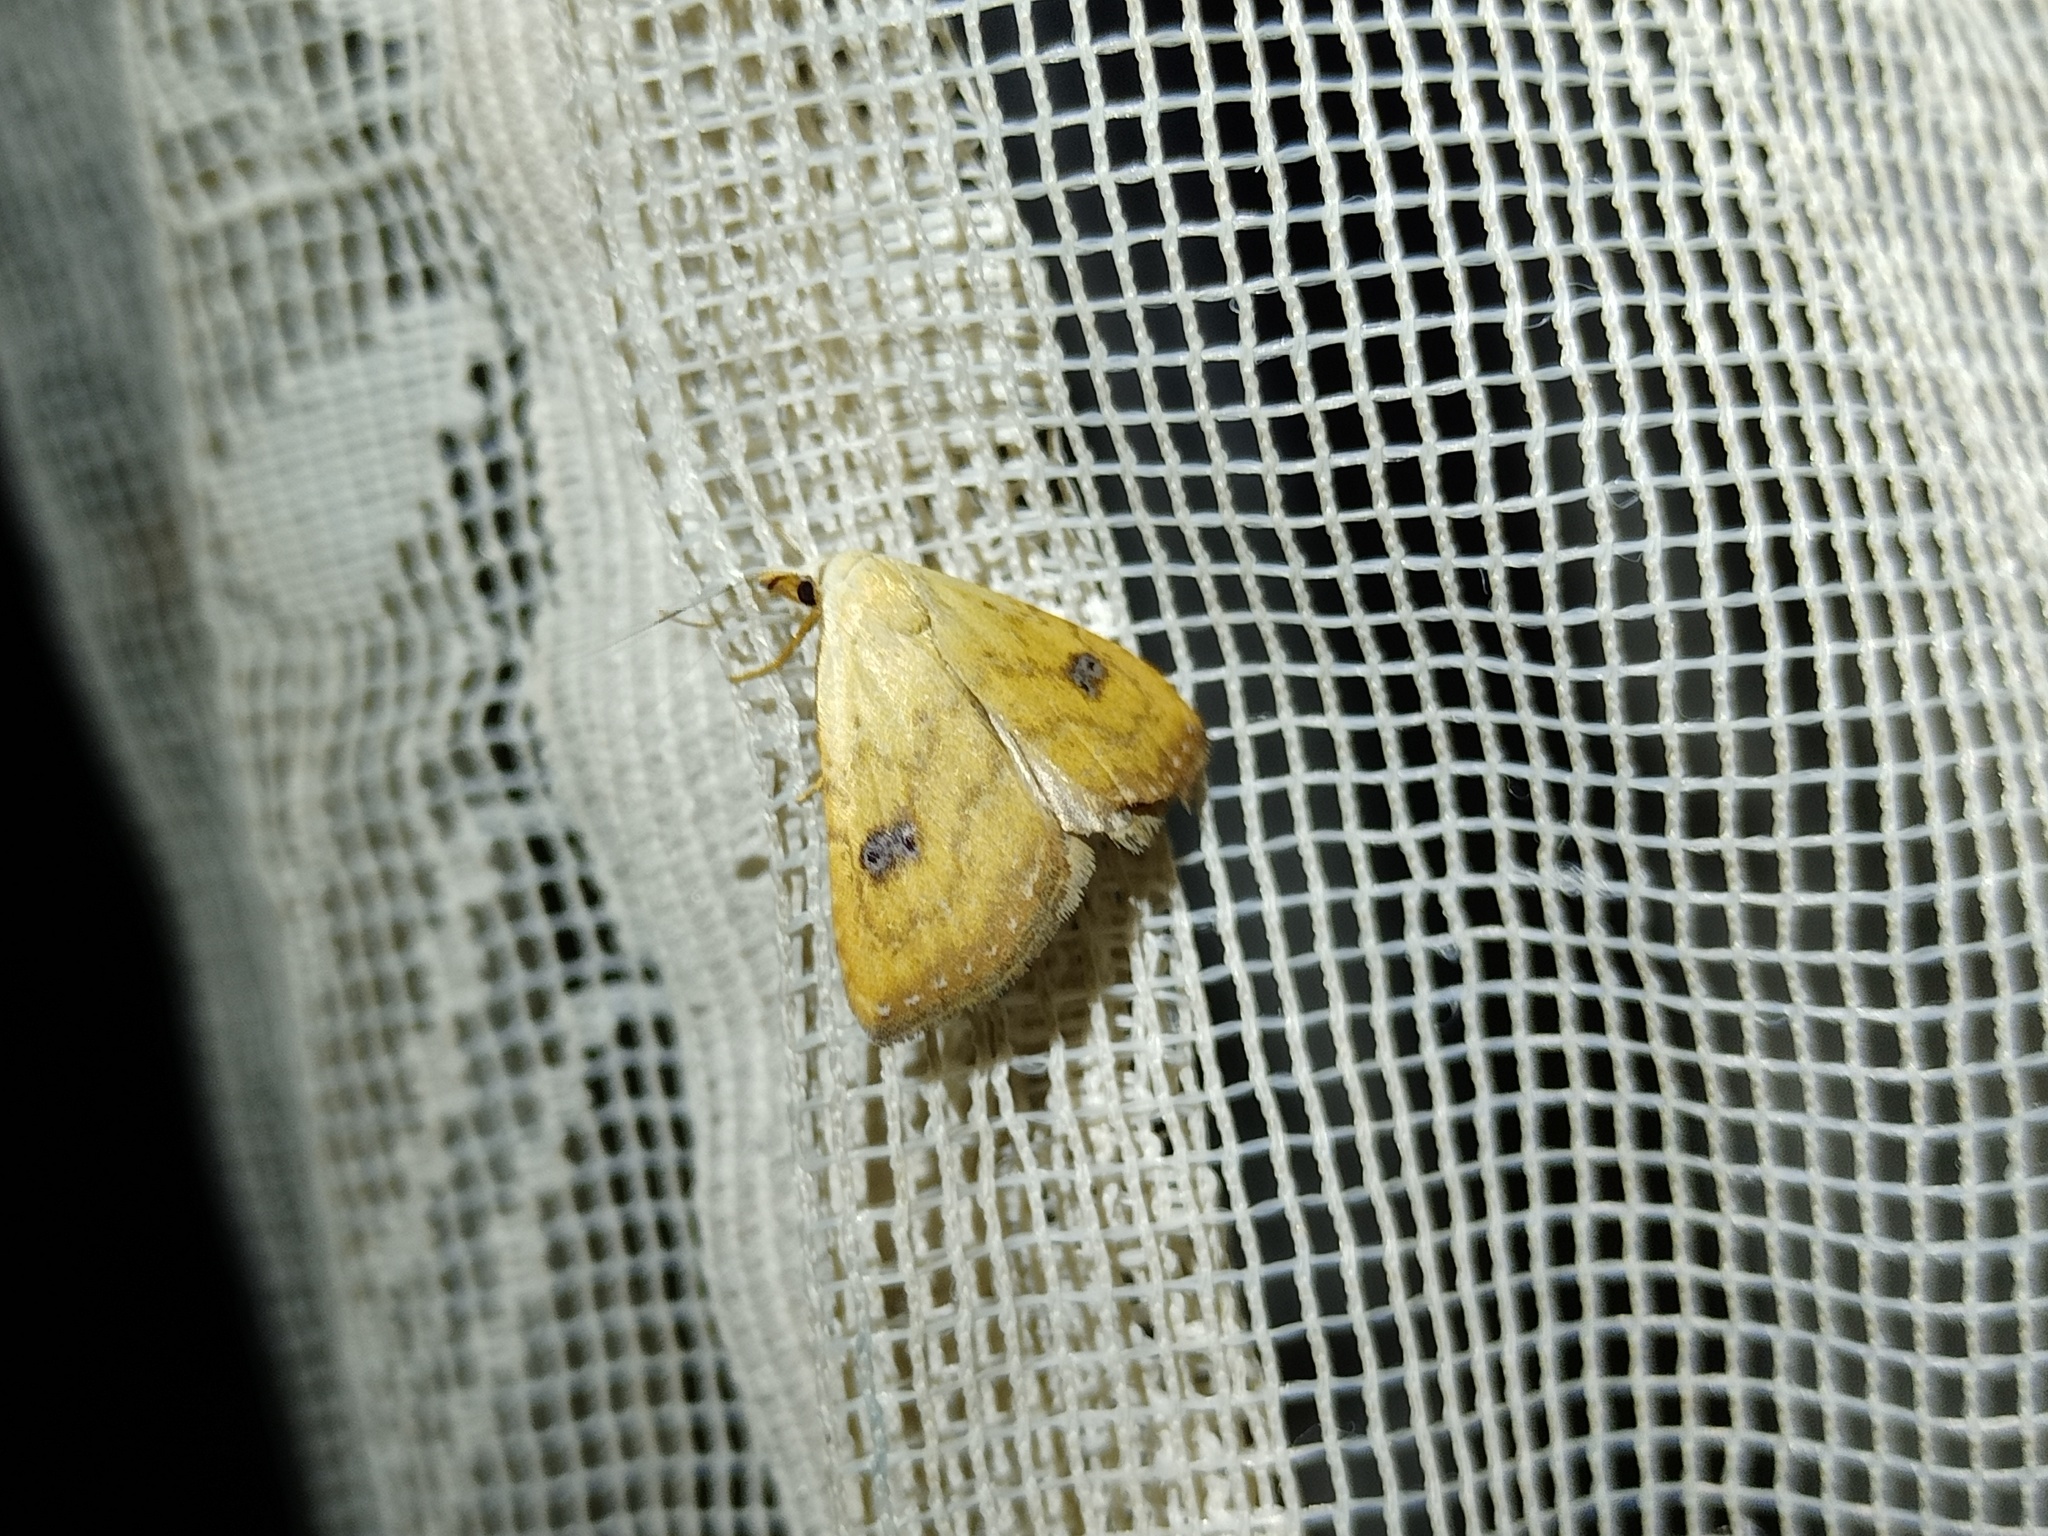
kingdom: Animalia
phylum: Arthropoda
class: Insecta
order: Lepidoptera
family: Erebidae
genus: Rivula
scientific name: Rivula sericealis
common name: Straw dot
